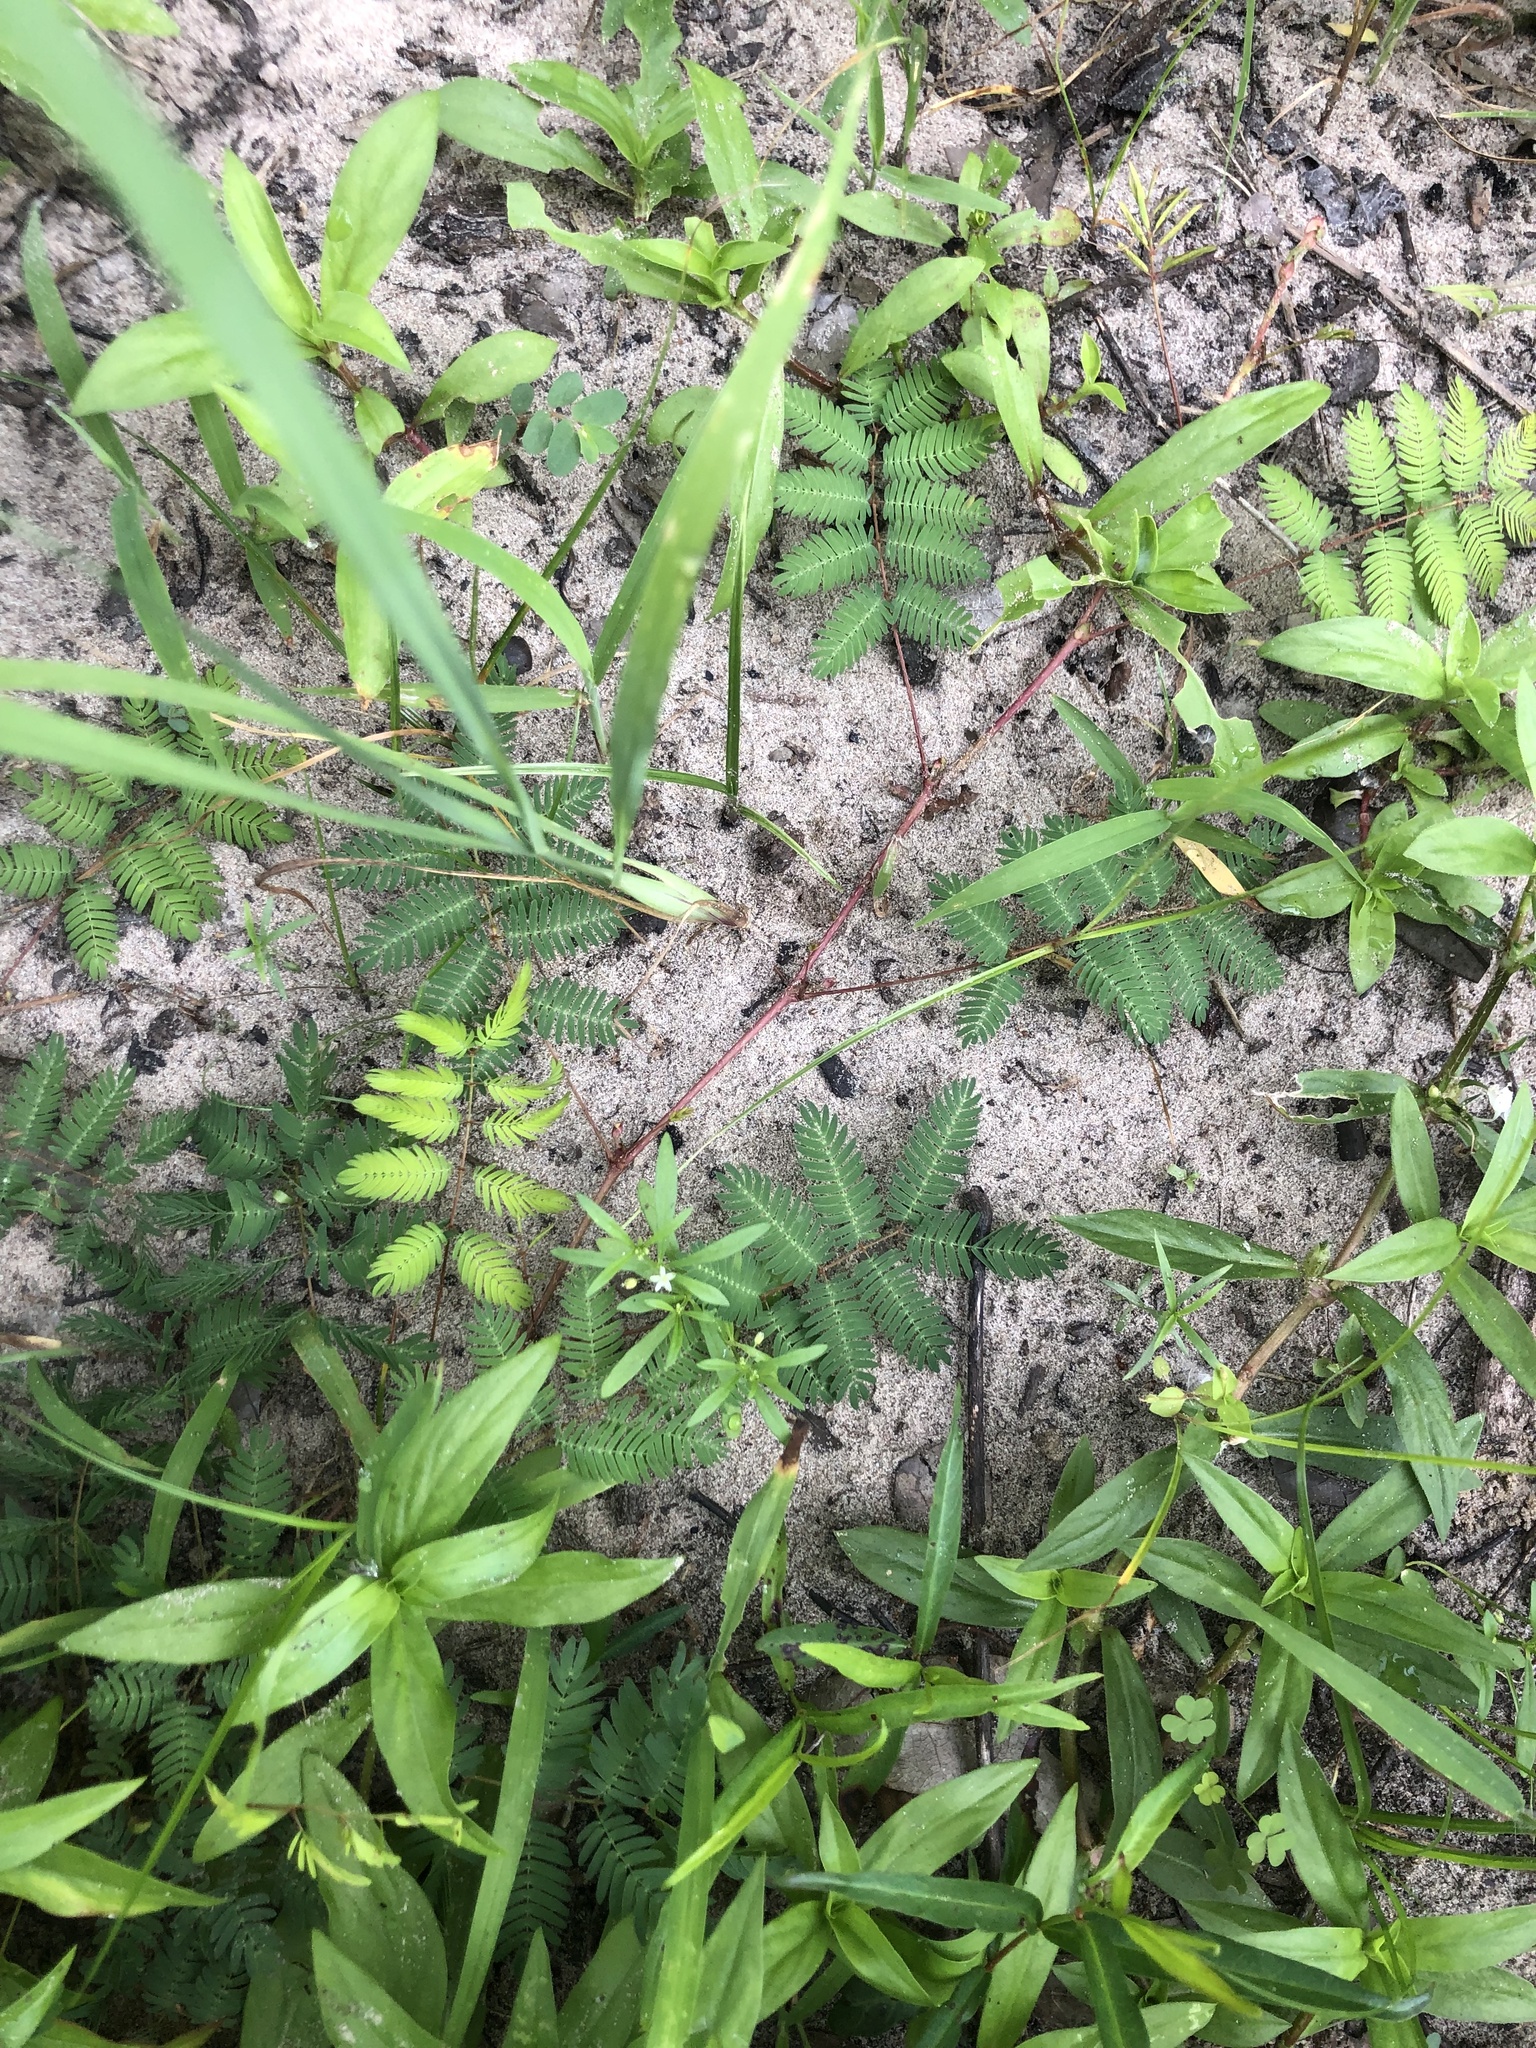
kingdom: Plantae
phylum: Tracheophyta
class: Magnoliopsida
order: Fabales
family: Fabaceae
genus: Mimosa
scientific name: Mimosa strigillosa
